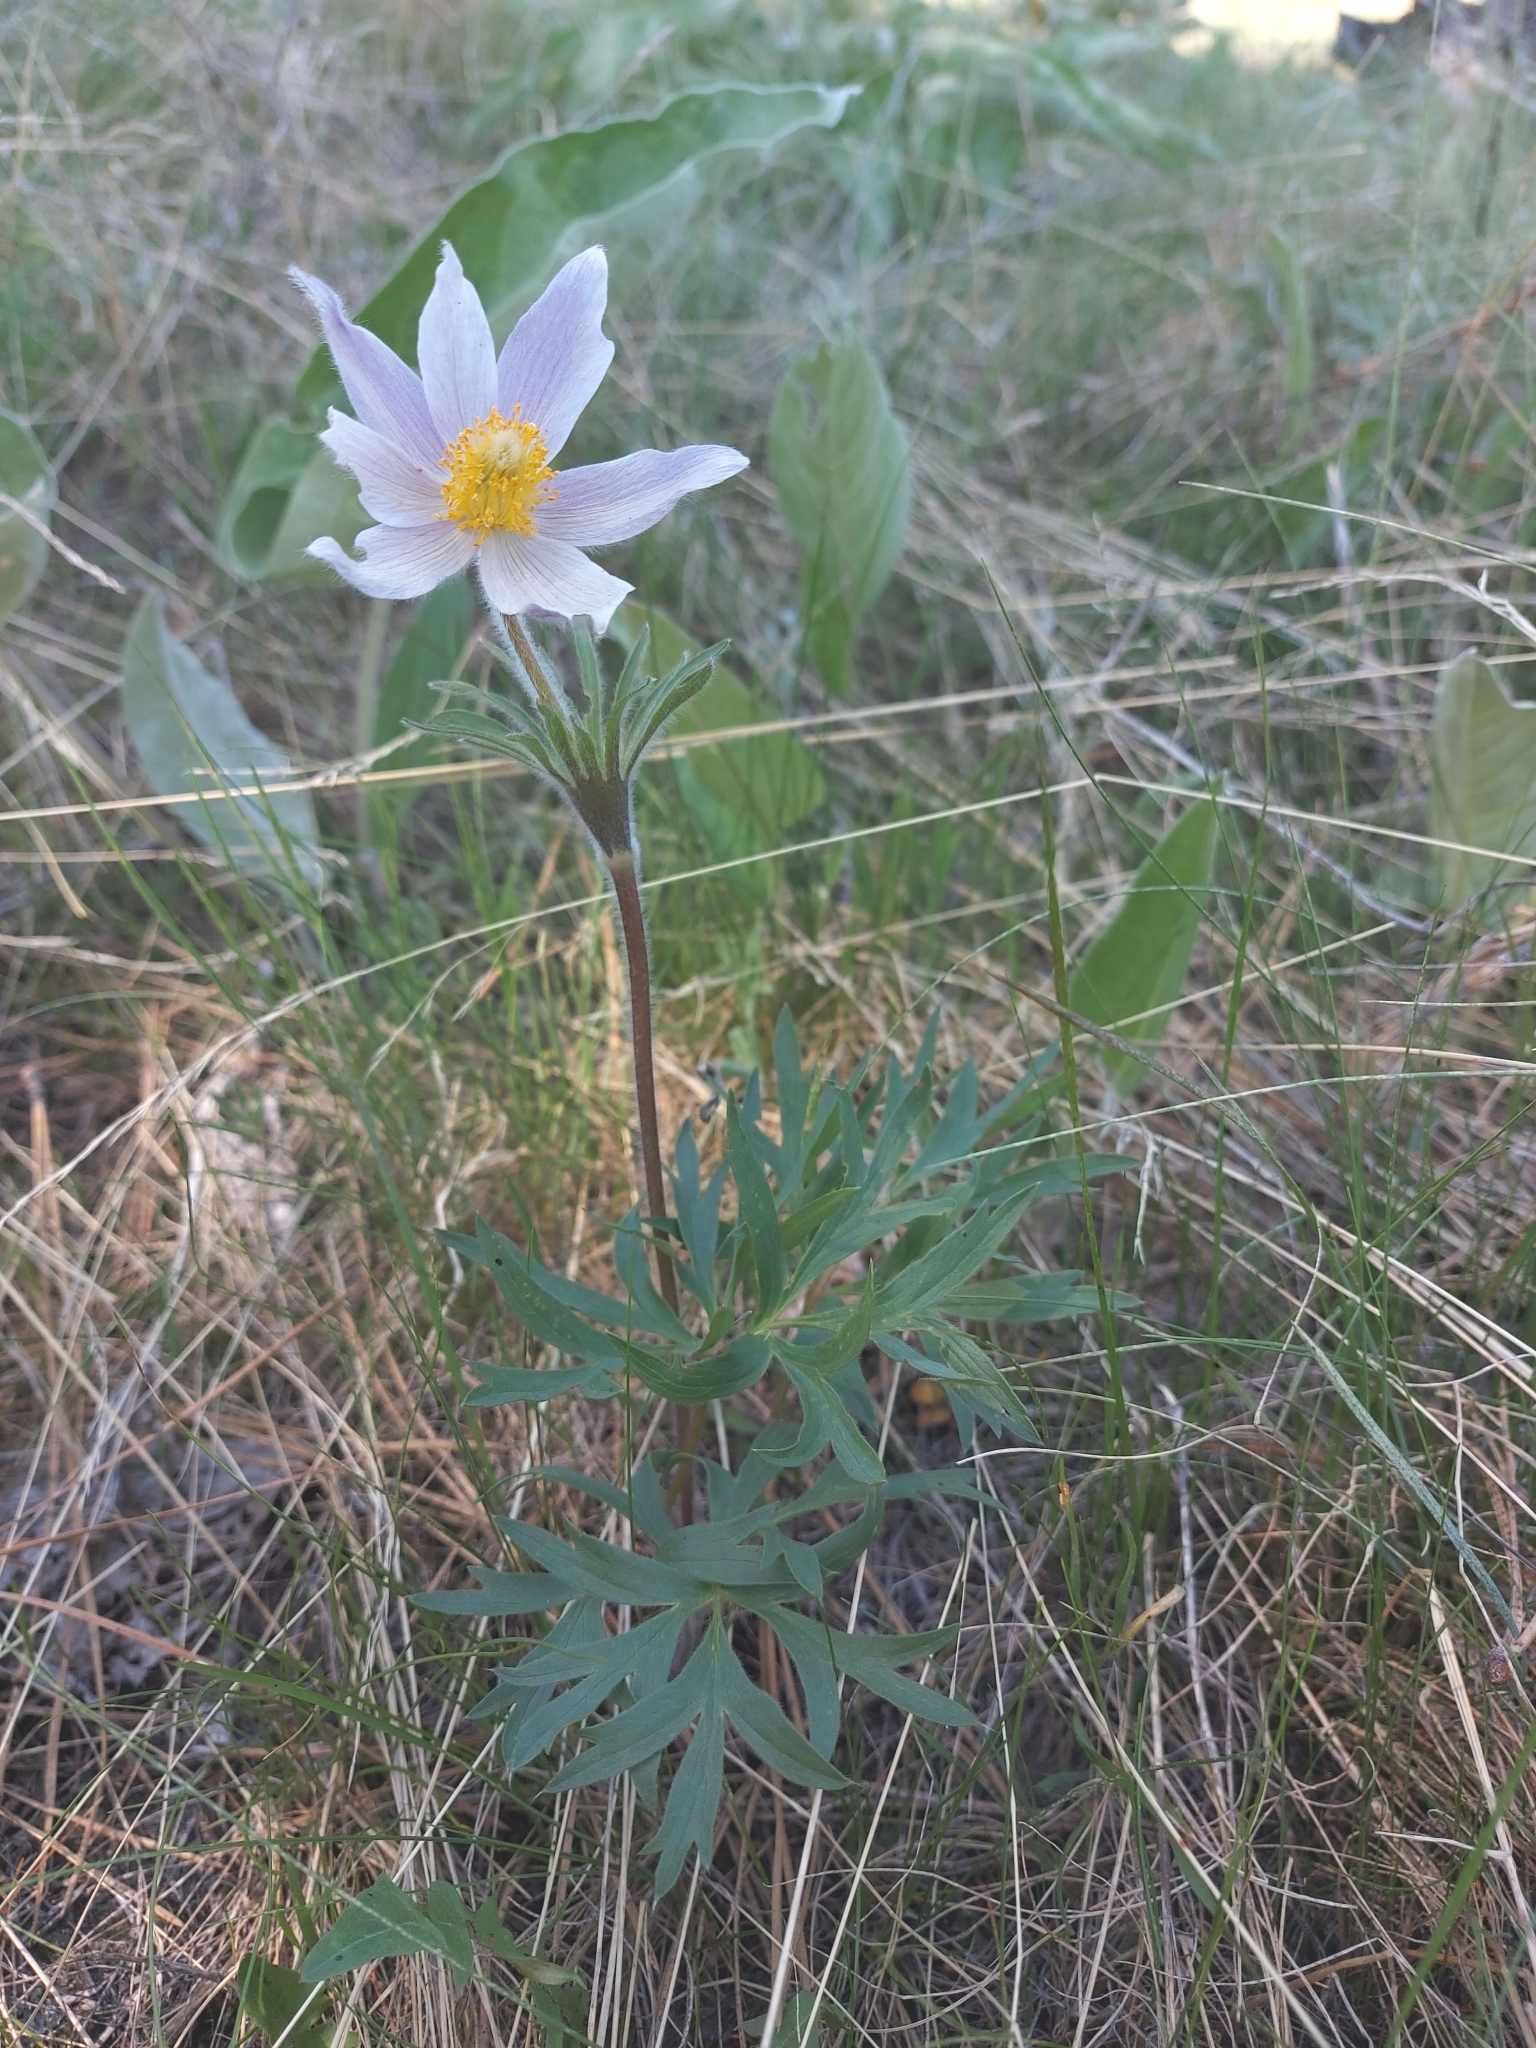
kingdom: Plantae
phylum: Tracheophyta
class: Magnoliopsida
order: Ranunculales
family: Ranunculaceae
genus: Pulsatilla
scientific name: Pulsatilla nuttalliana
